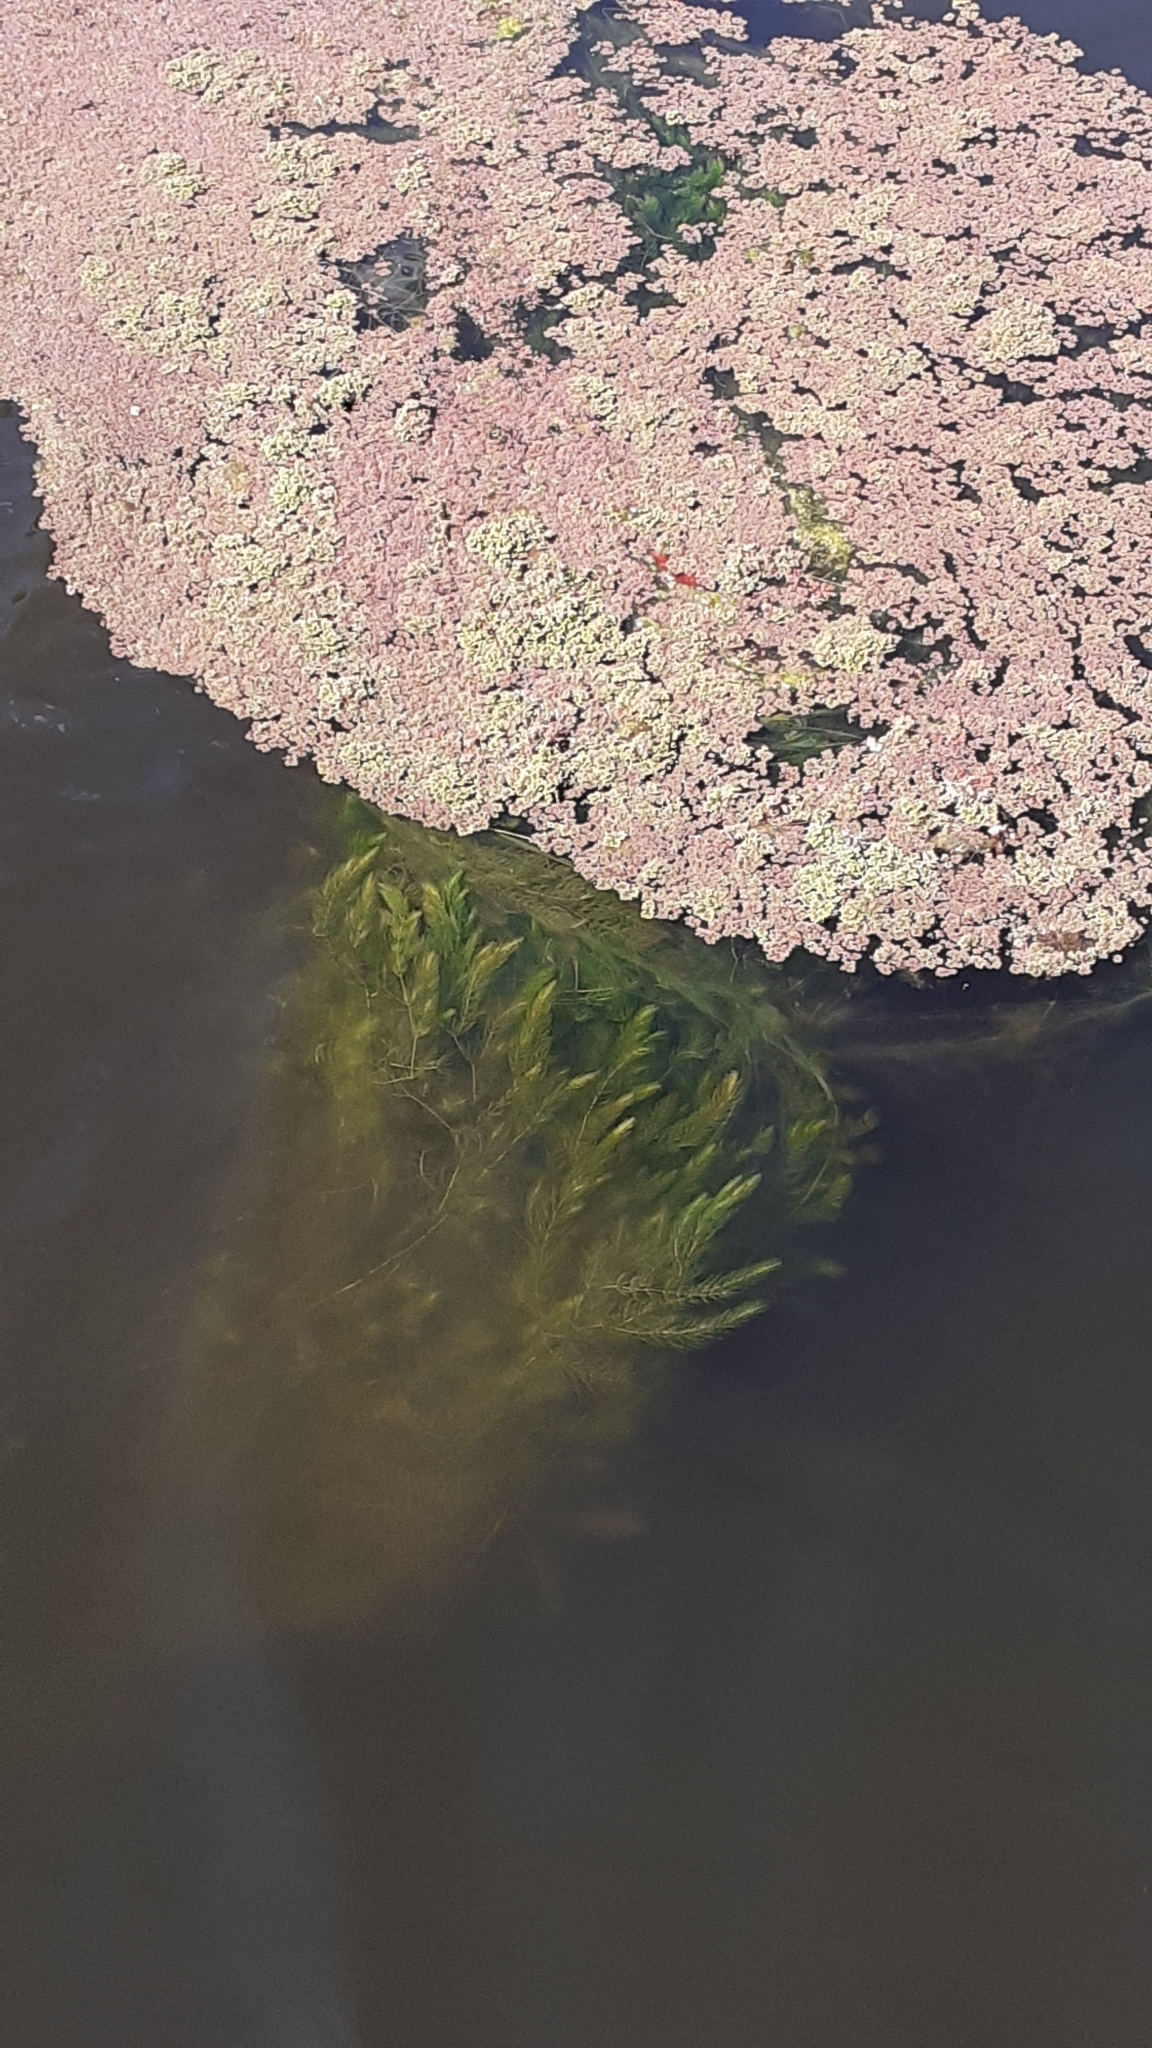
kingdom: Plantae
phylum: Tracheophyta
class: Magnoliopsida
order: Ceratophyllales
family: Ceratophyllaceae
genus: Ceratophyllum
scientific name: Ceratophyllum demersum
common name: Rigid hornwort
